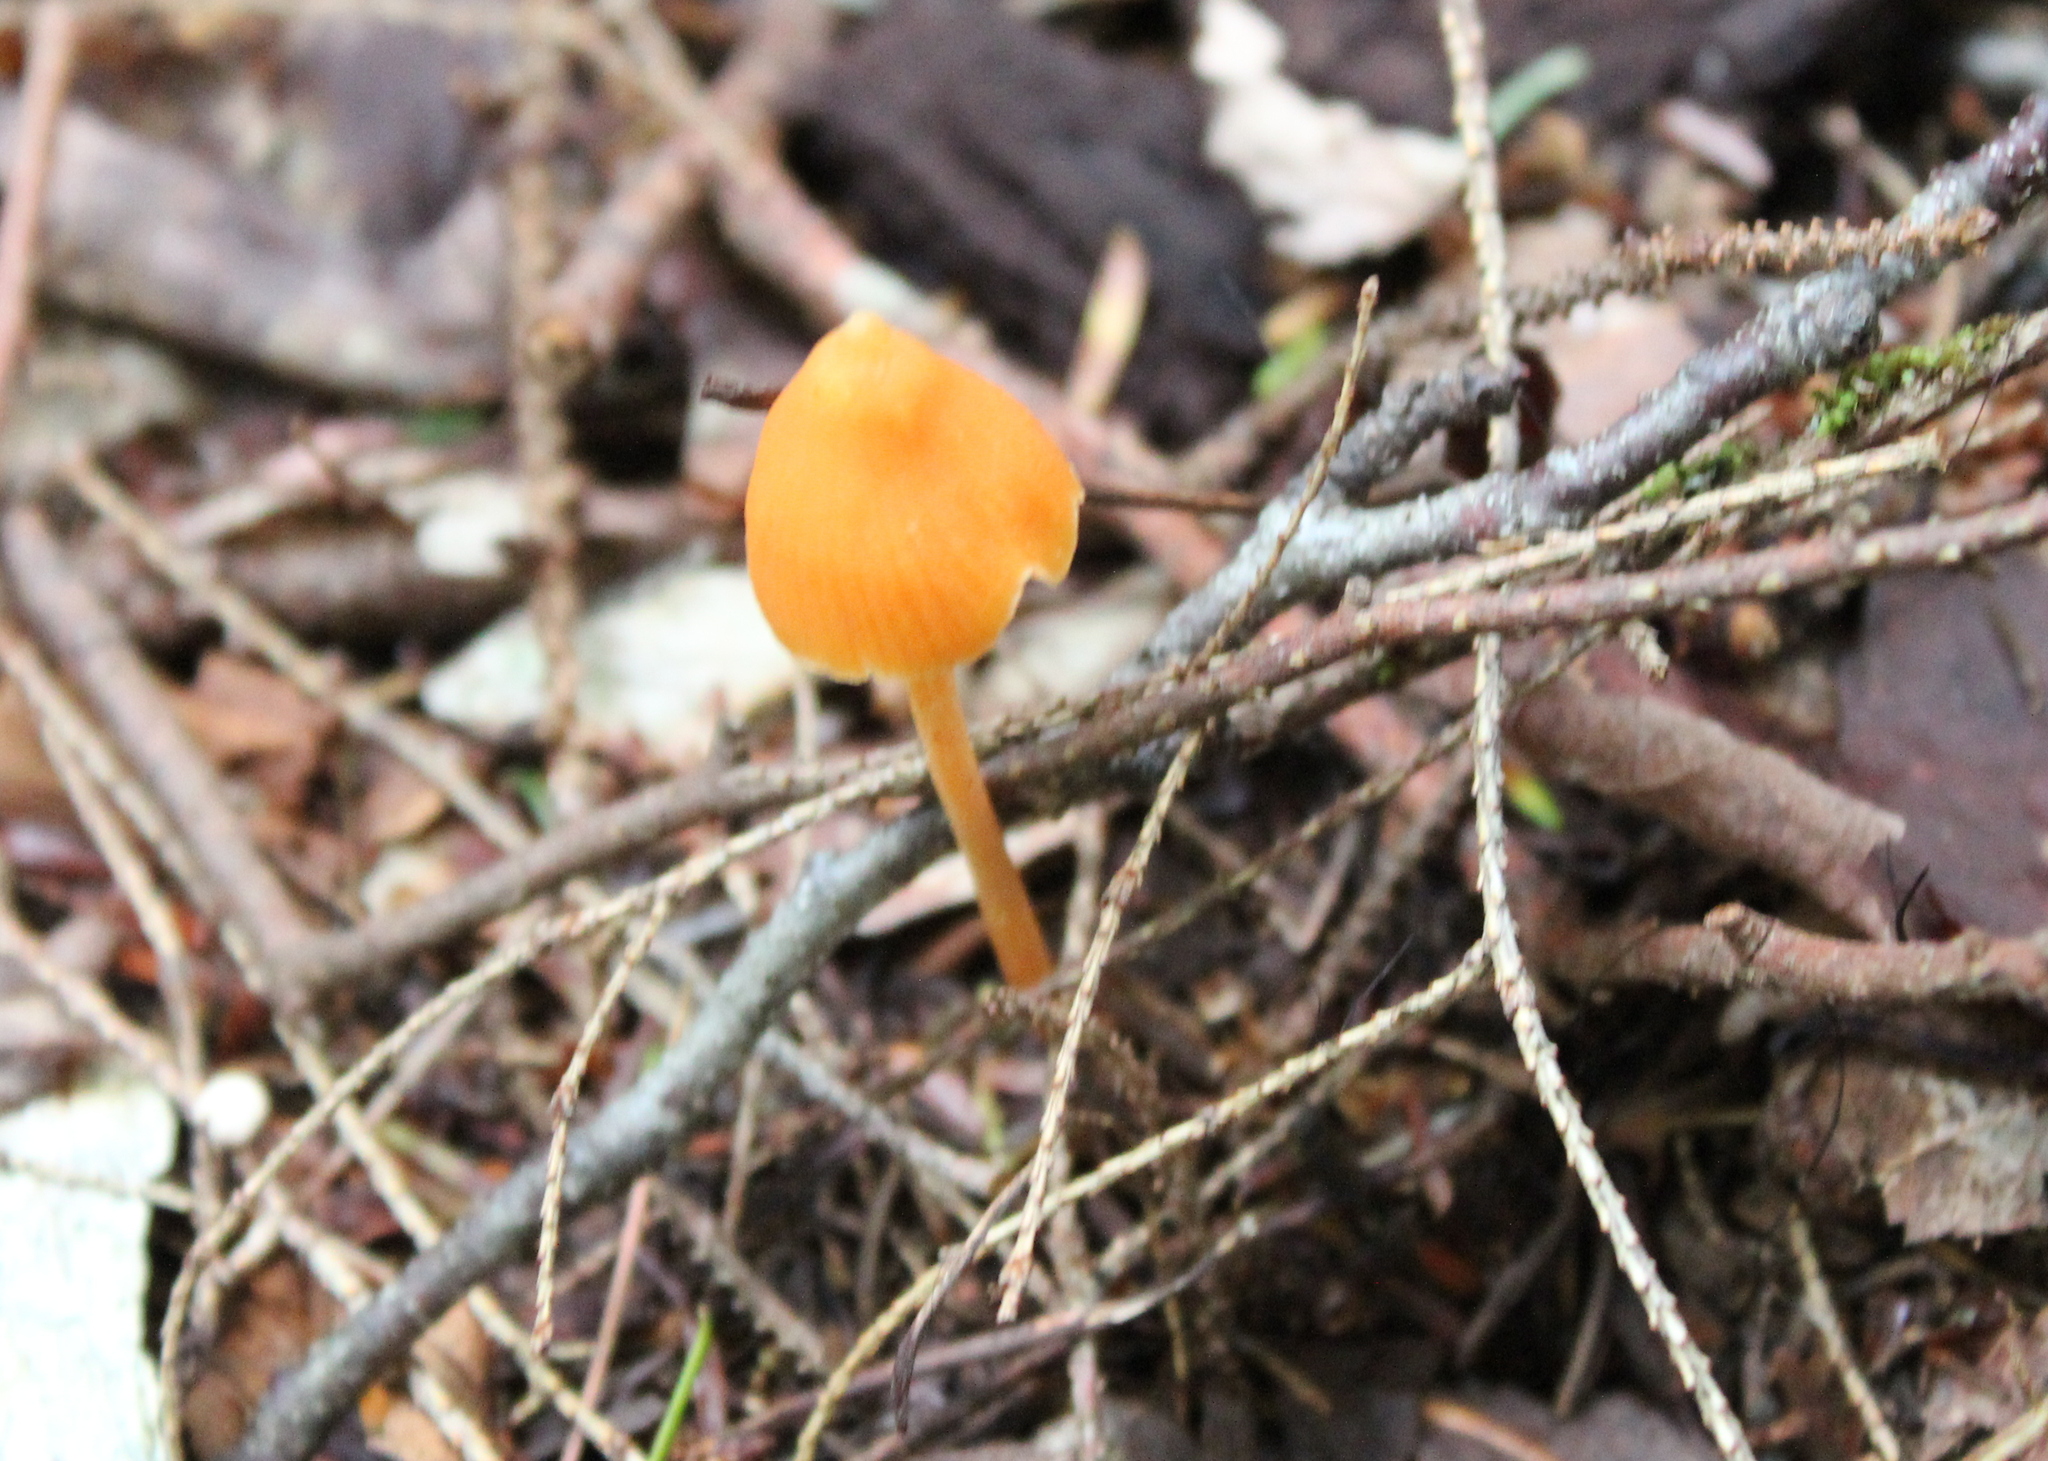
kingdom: Fungi
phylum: Basidiomycota
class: Agaricomycetes
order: Agaricales
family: Entolomataceae
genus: Entoloma
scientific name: Entoloma quadratum
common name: Salmon pinkgill
